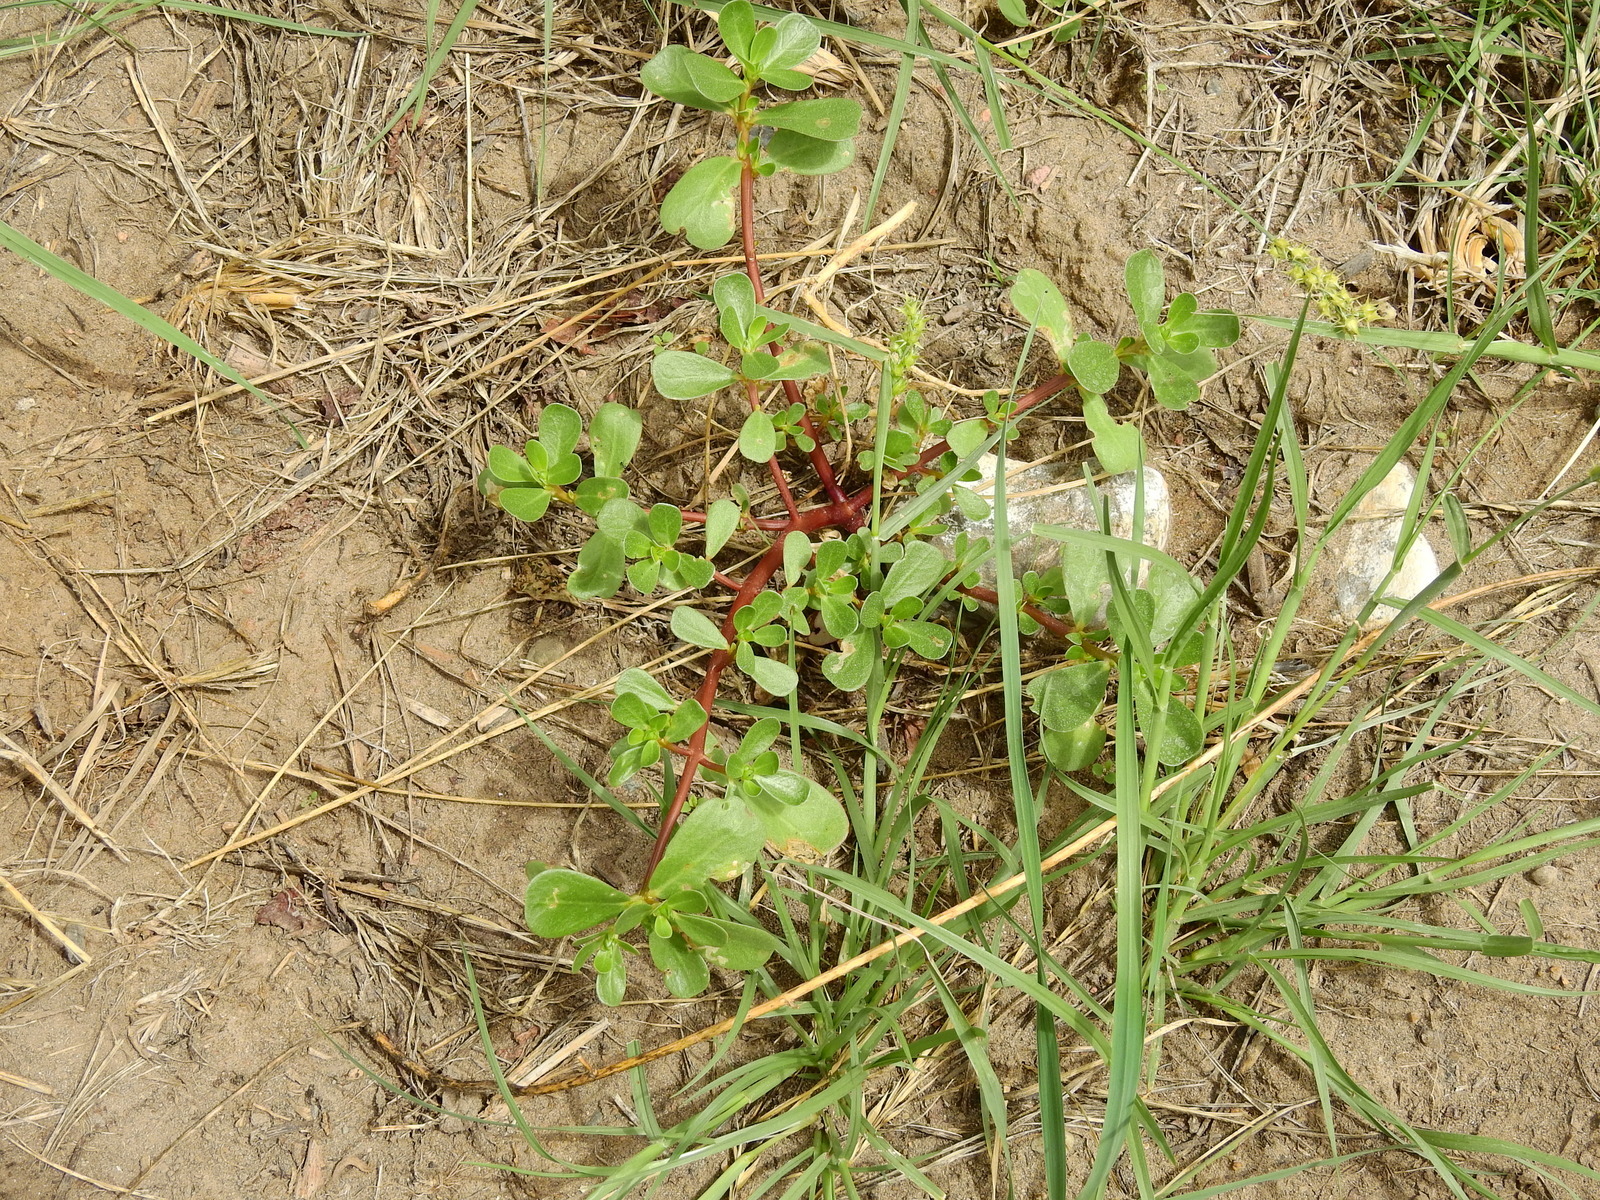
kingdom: Plantae
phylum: Tracheophyta
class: Magnoliopsida
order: Caryophyllales
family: Portulacaceae
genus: Portulaca
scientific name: Portulaca oleracea
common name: Common purslane
